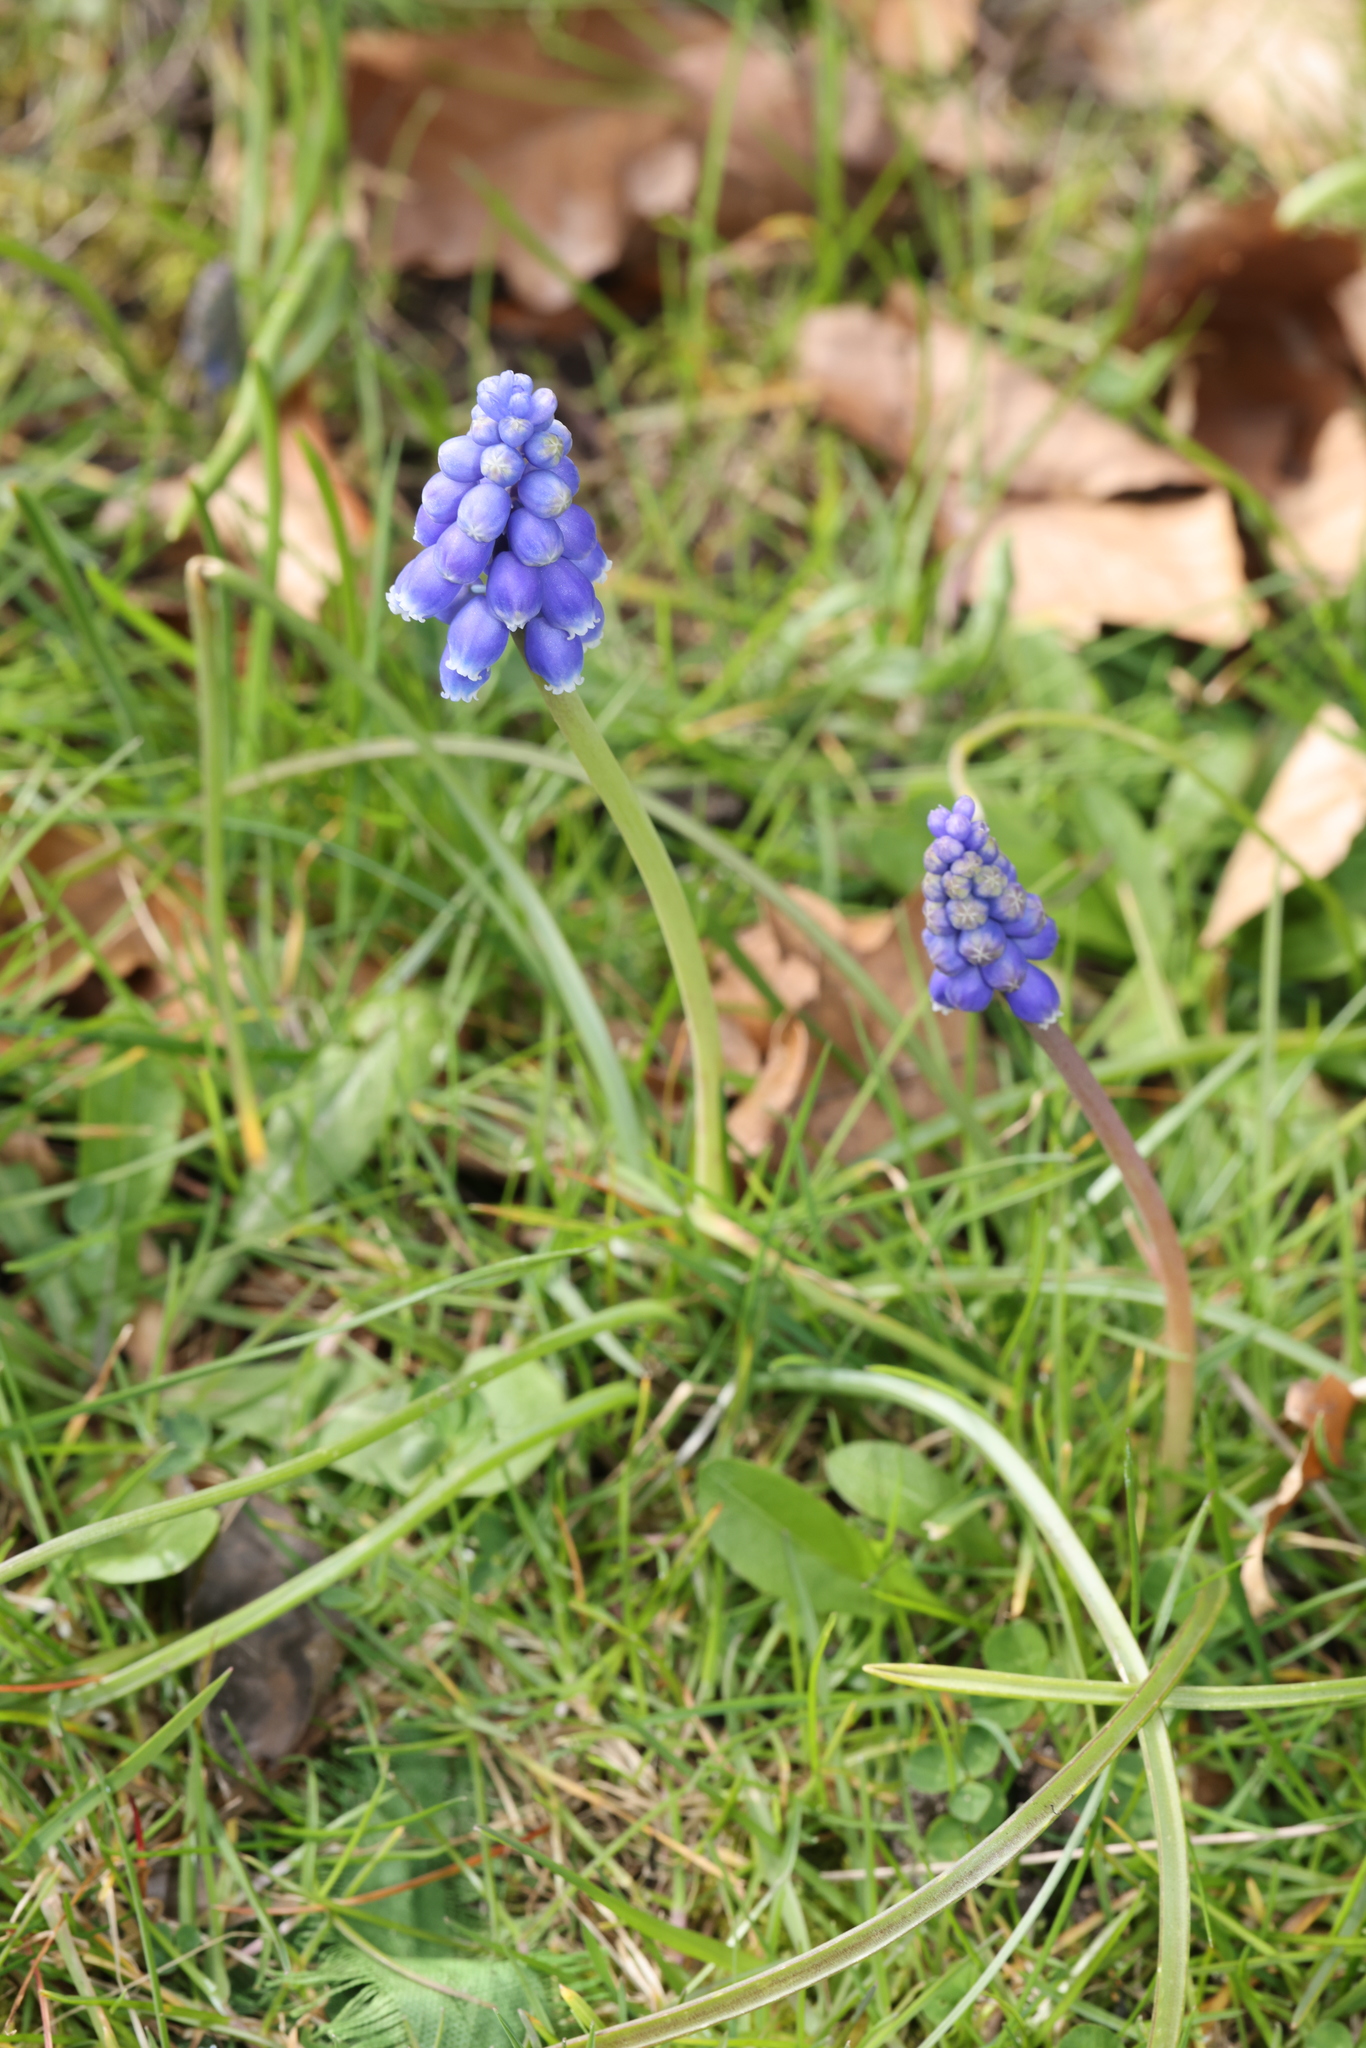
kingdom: Plantae
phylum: Tracheophyta
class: Liliopsida
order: Asparagales
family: Asparagaceae
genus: Muscari
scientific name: Muscari armeniacum
